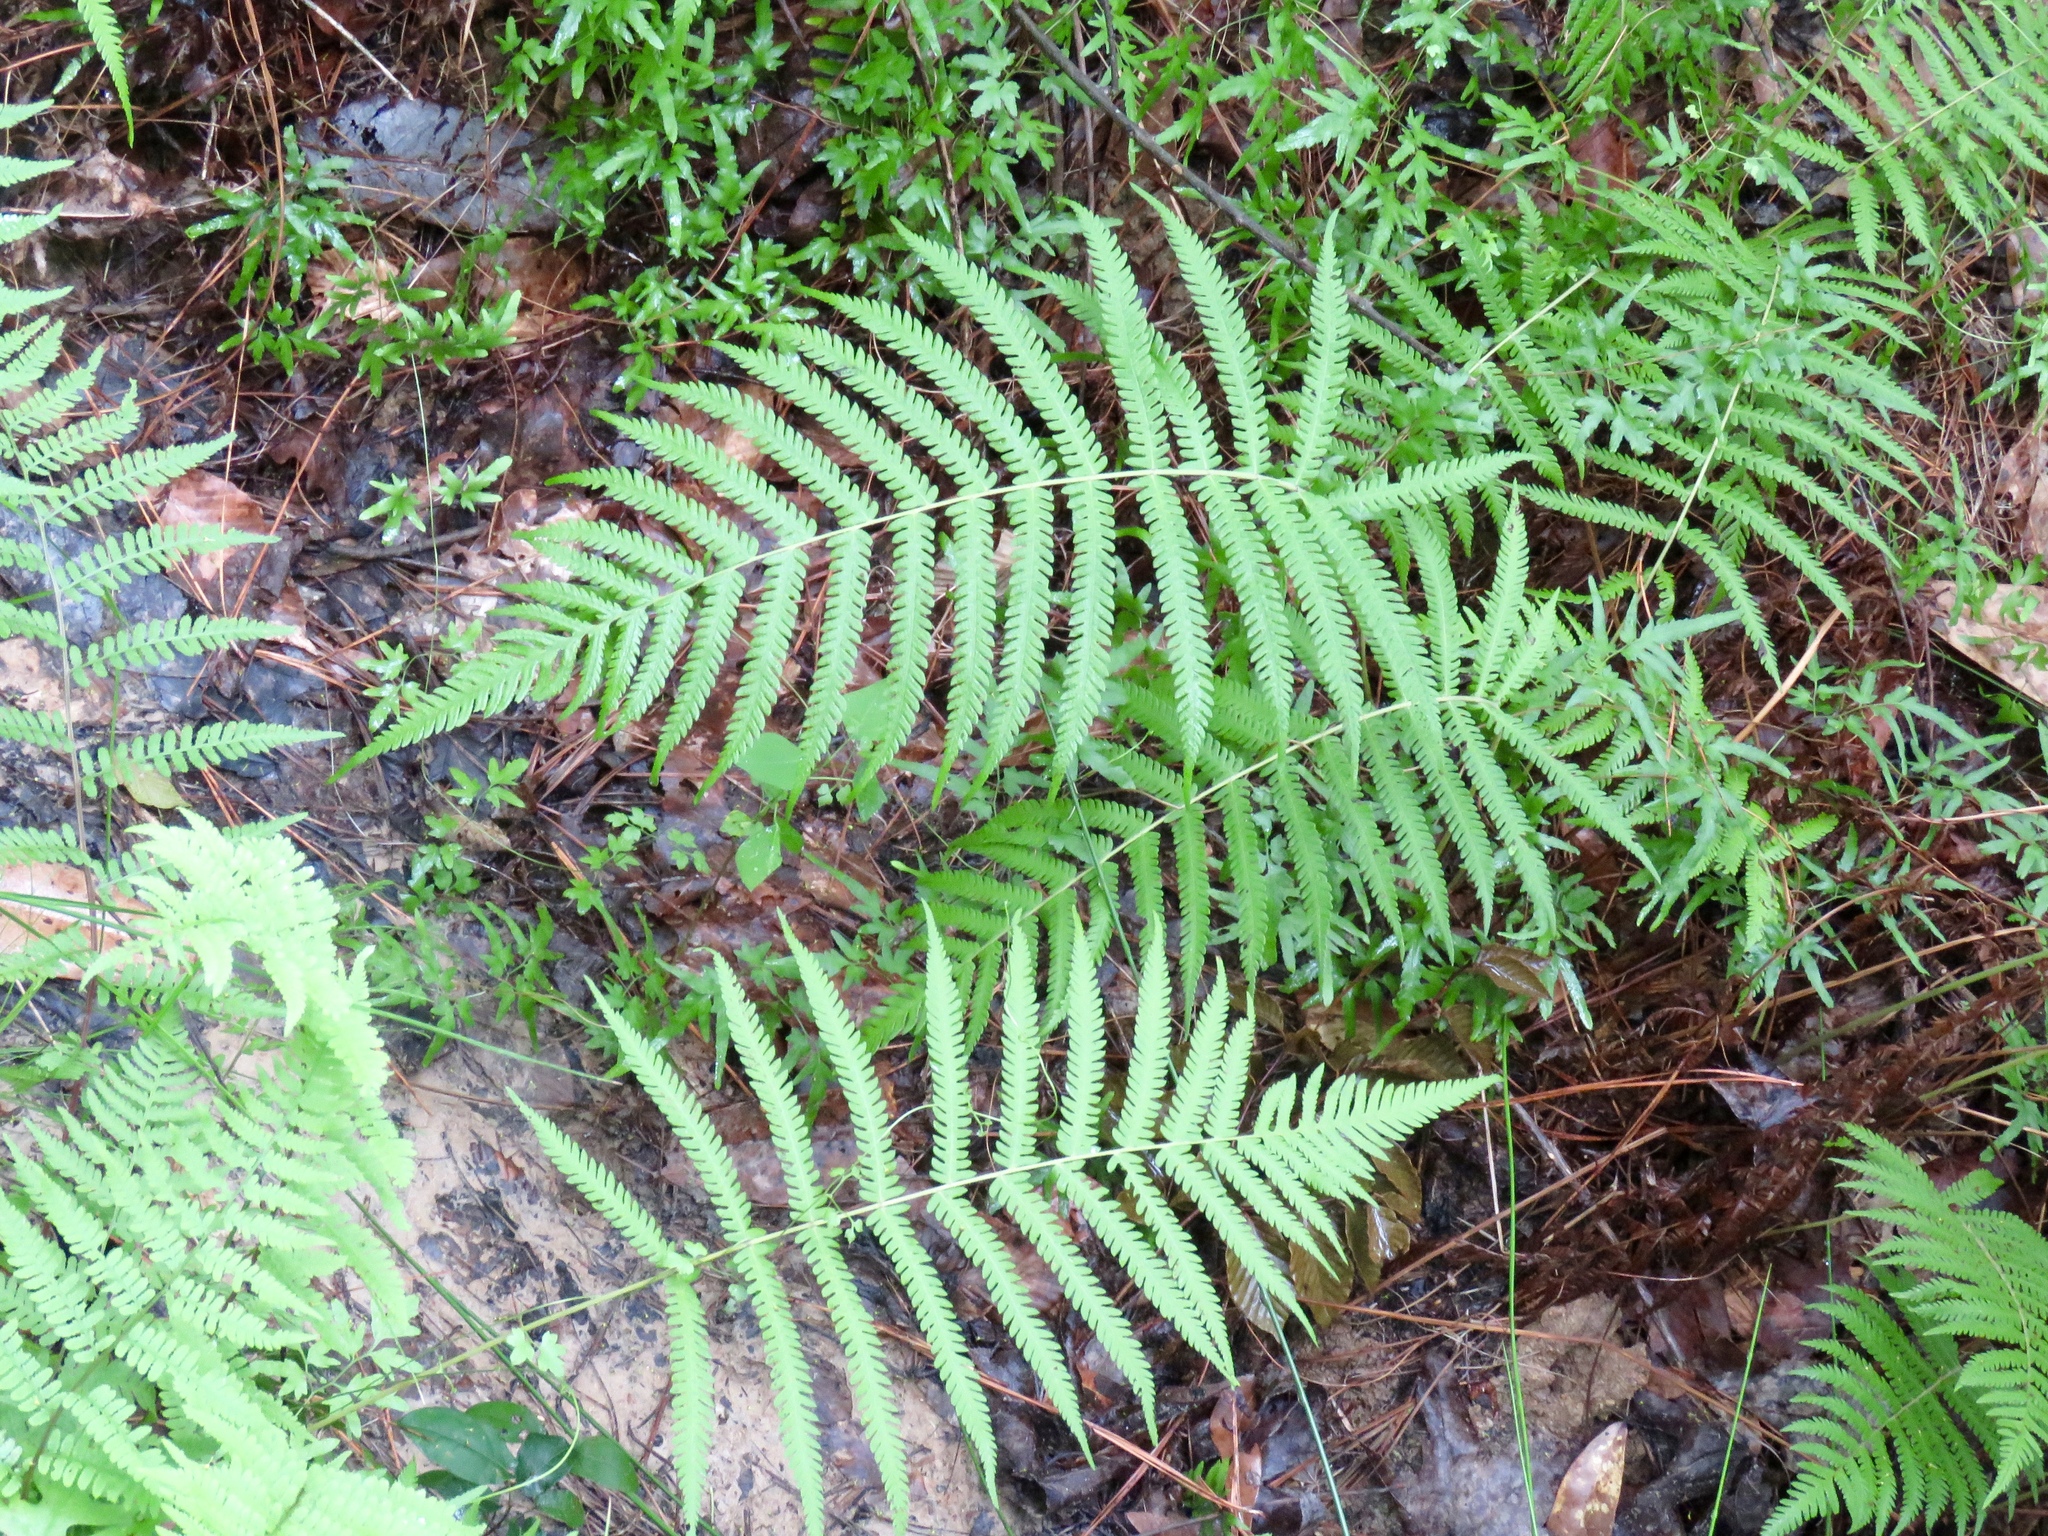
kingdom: Plantae
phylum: Tracheophyta
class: Polypodiopsida
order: Polypodiales
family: Thelypteridaceae
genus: Pelazoneuron
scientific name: Pelazoneuron kunthii
